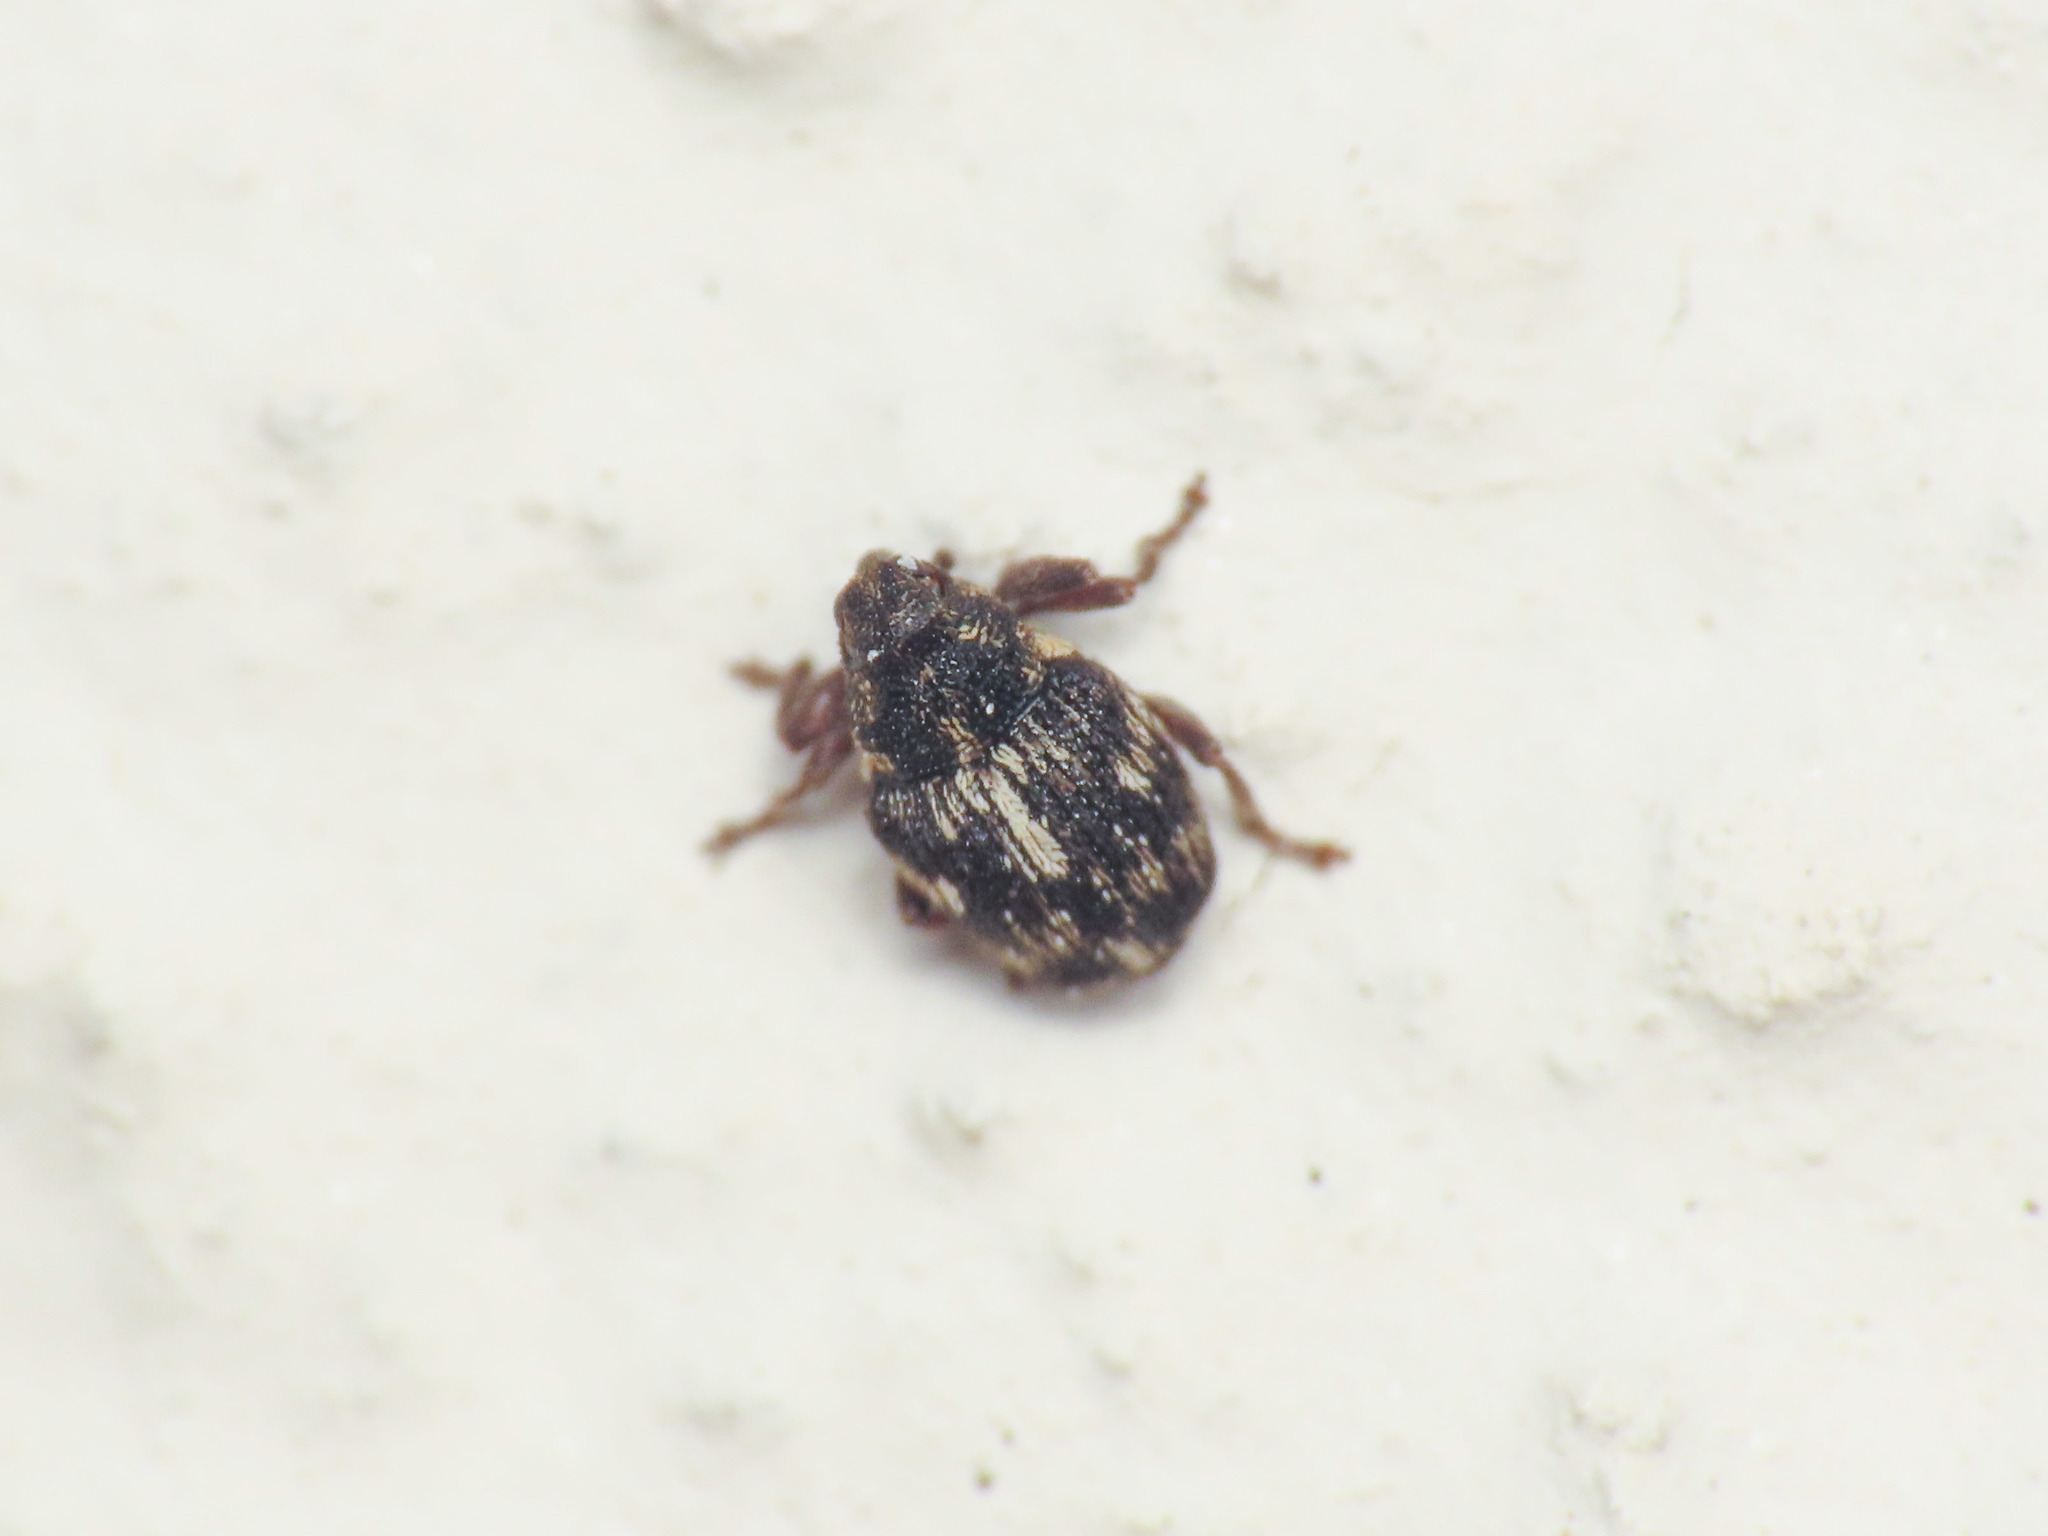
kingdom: Animalia
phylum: Arthropoda
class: Insecta
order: Coleoptera
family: Curculionidae
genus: Coeliastes
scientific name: Coeliastes lamii
